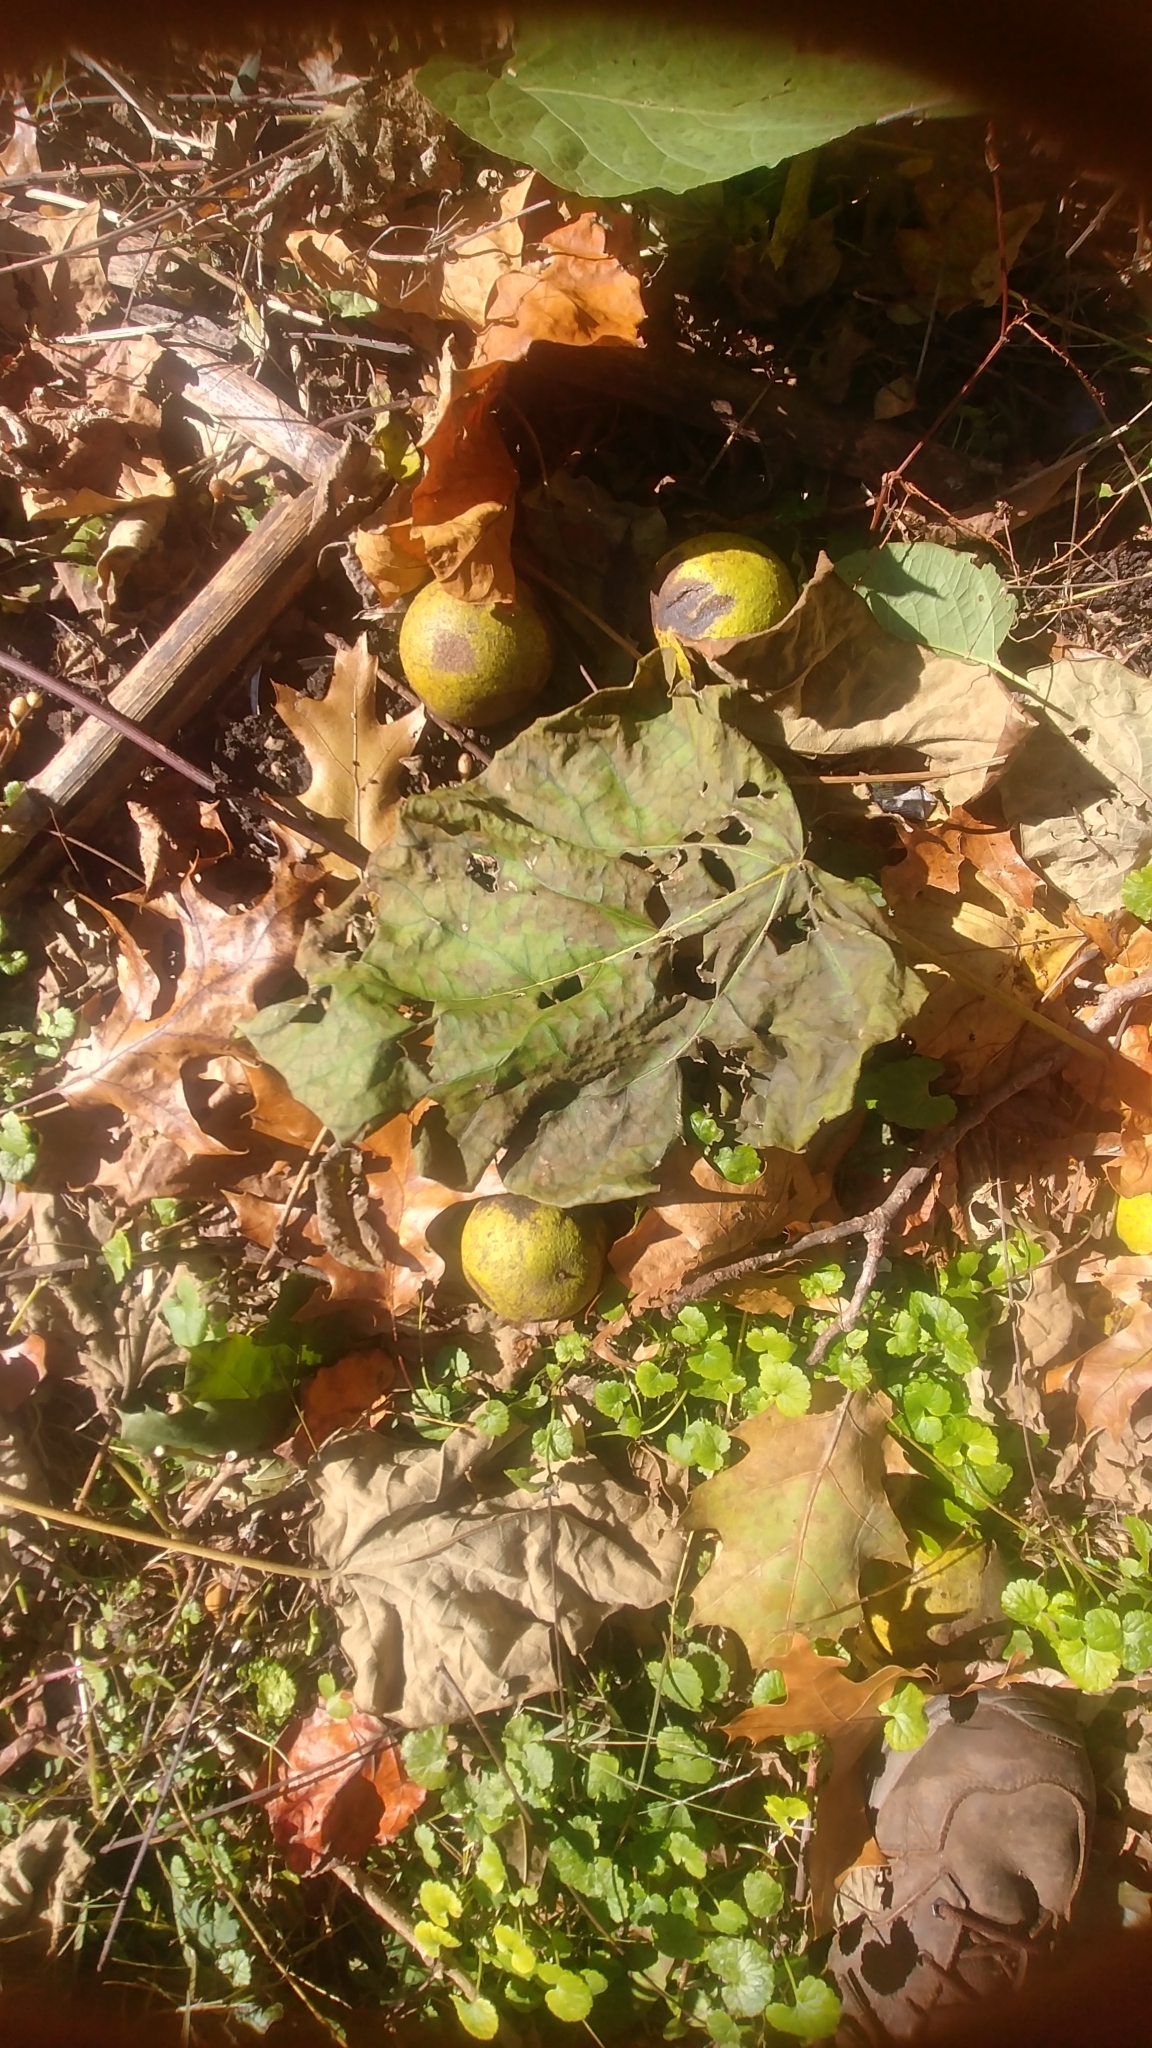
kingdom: Plantae
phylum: Tracheophyta
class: Magnoliopsida
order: Fagales
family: Juglandaceae
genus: Juglans
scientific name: Juglans nigra
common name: Black walnut
